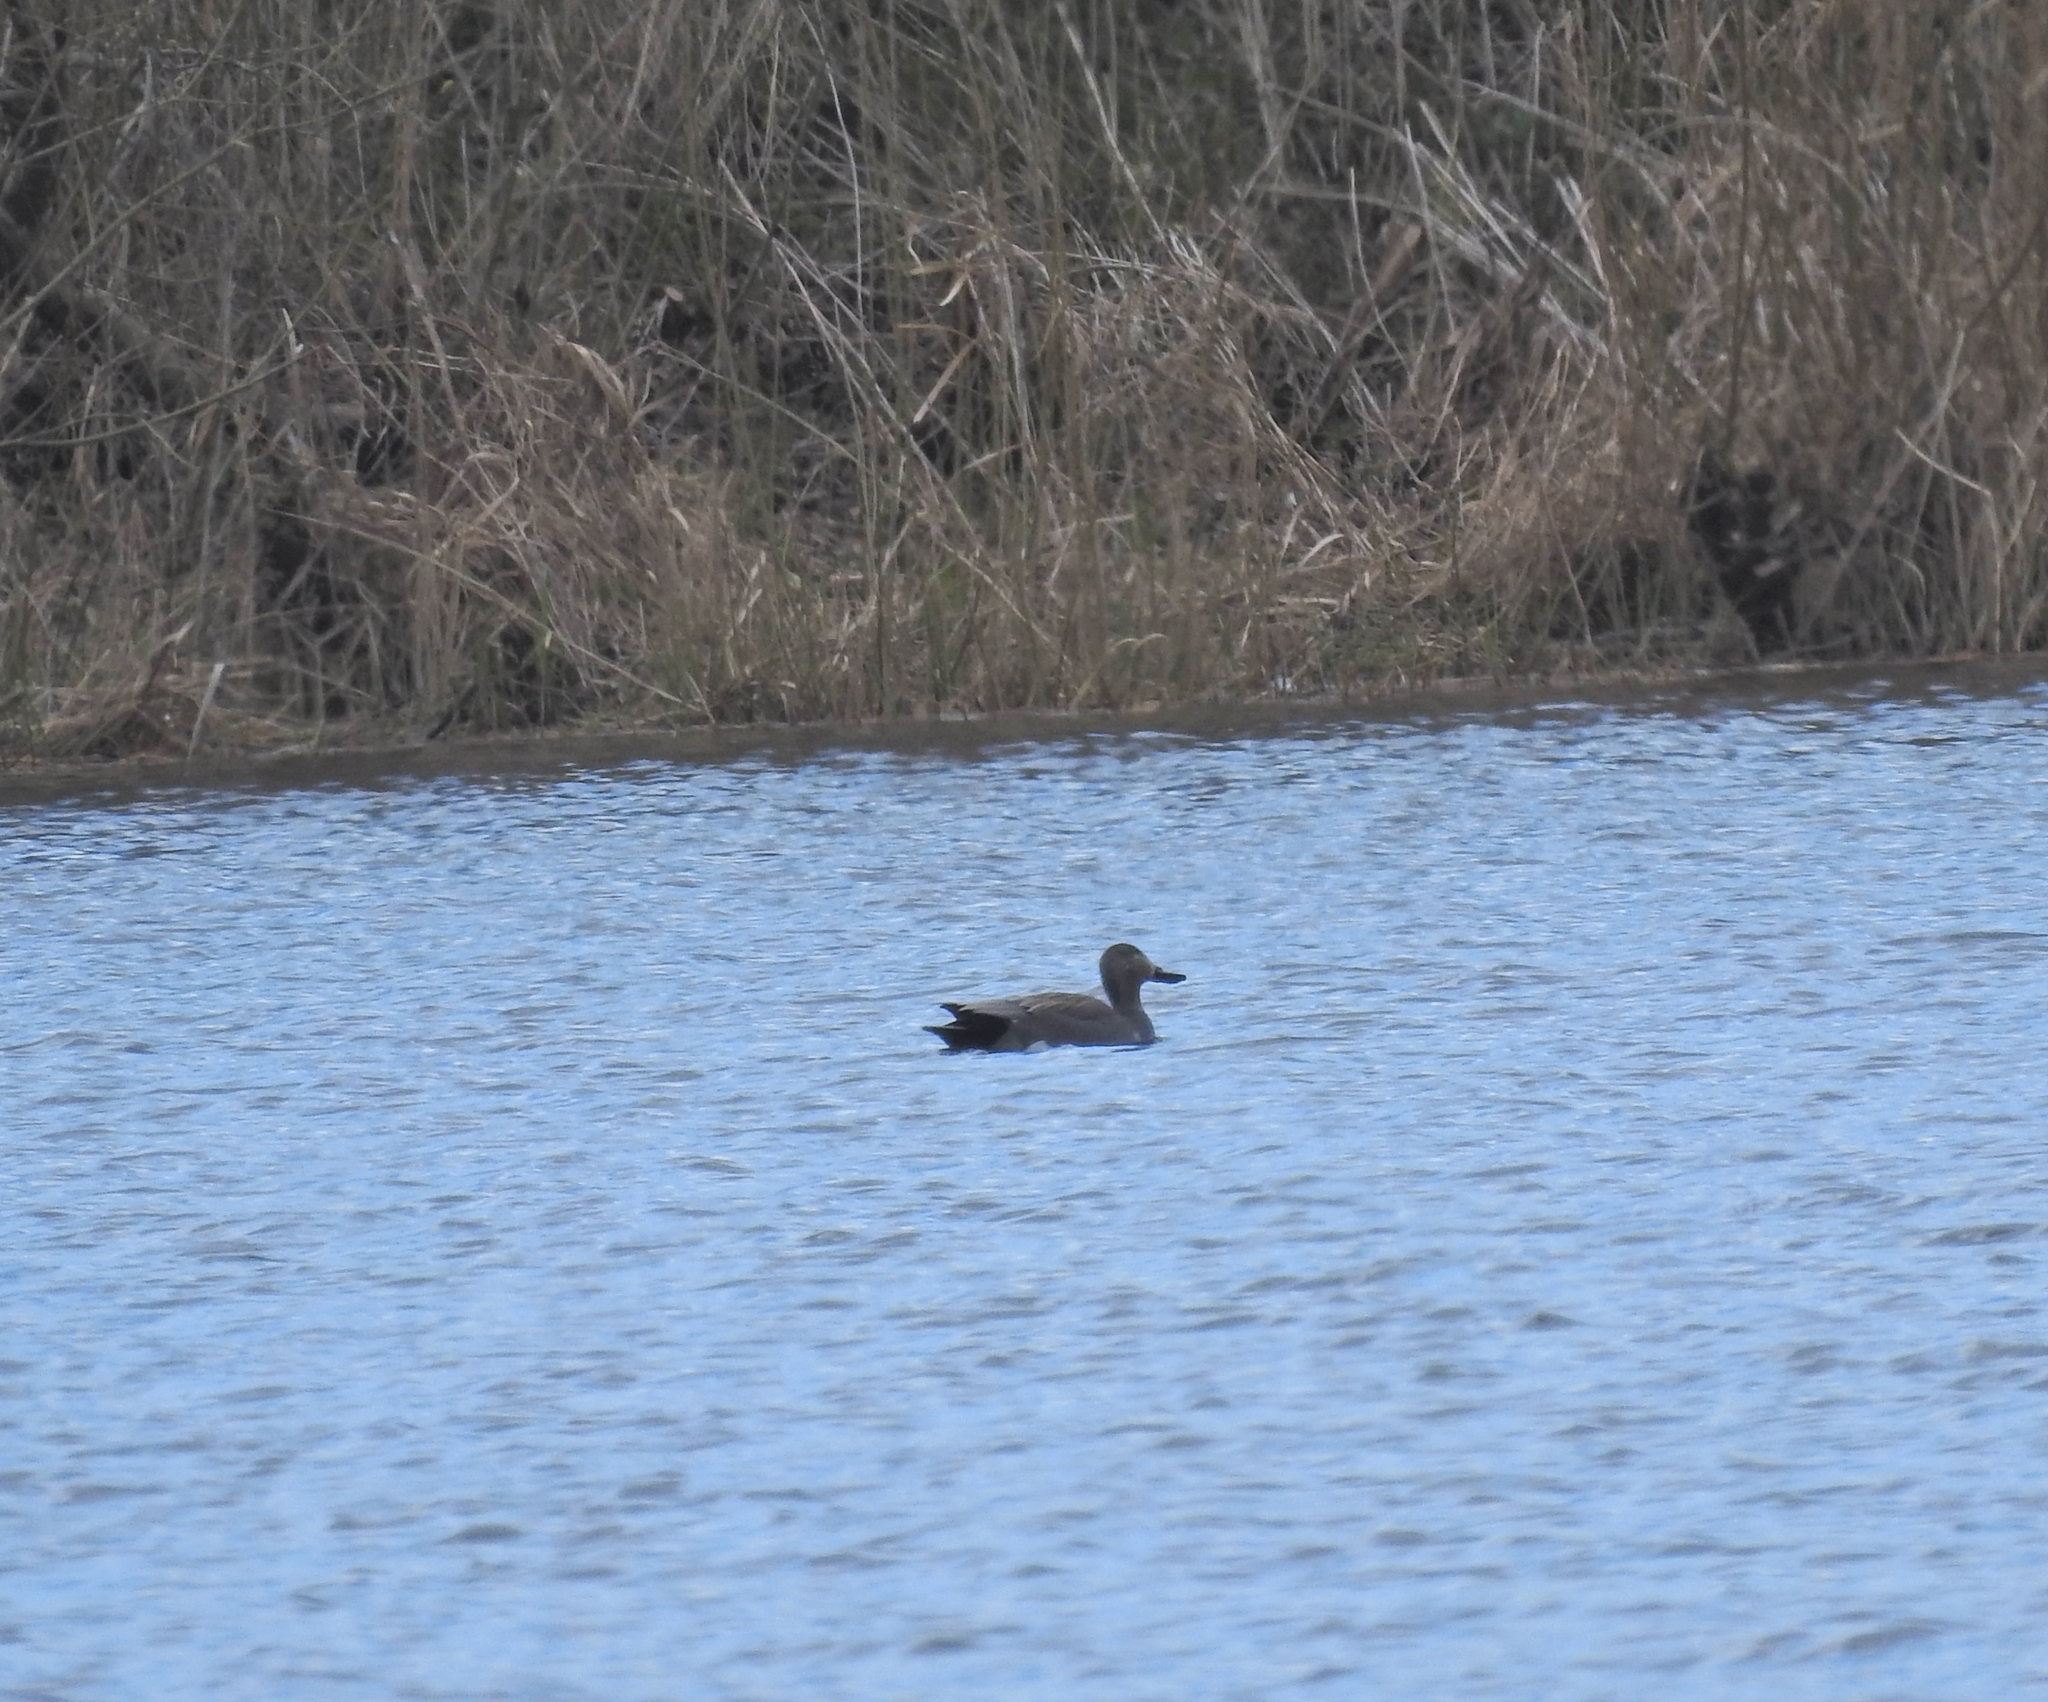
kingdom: Animalia
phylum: Chordata
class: Aves
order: Anseriformes
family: Anatidae
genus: Mareca
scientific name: Mareca strepera
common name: Gadwall
